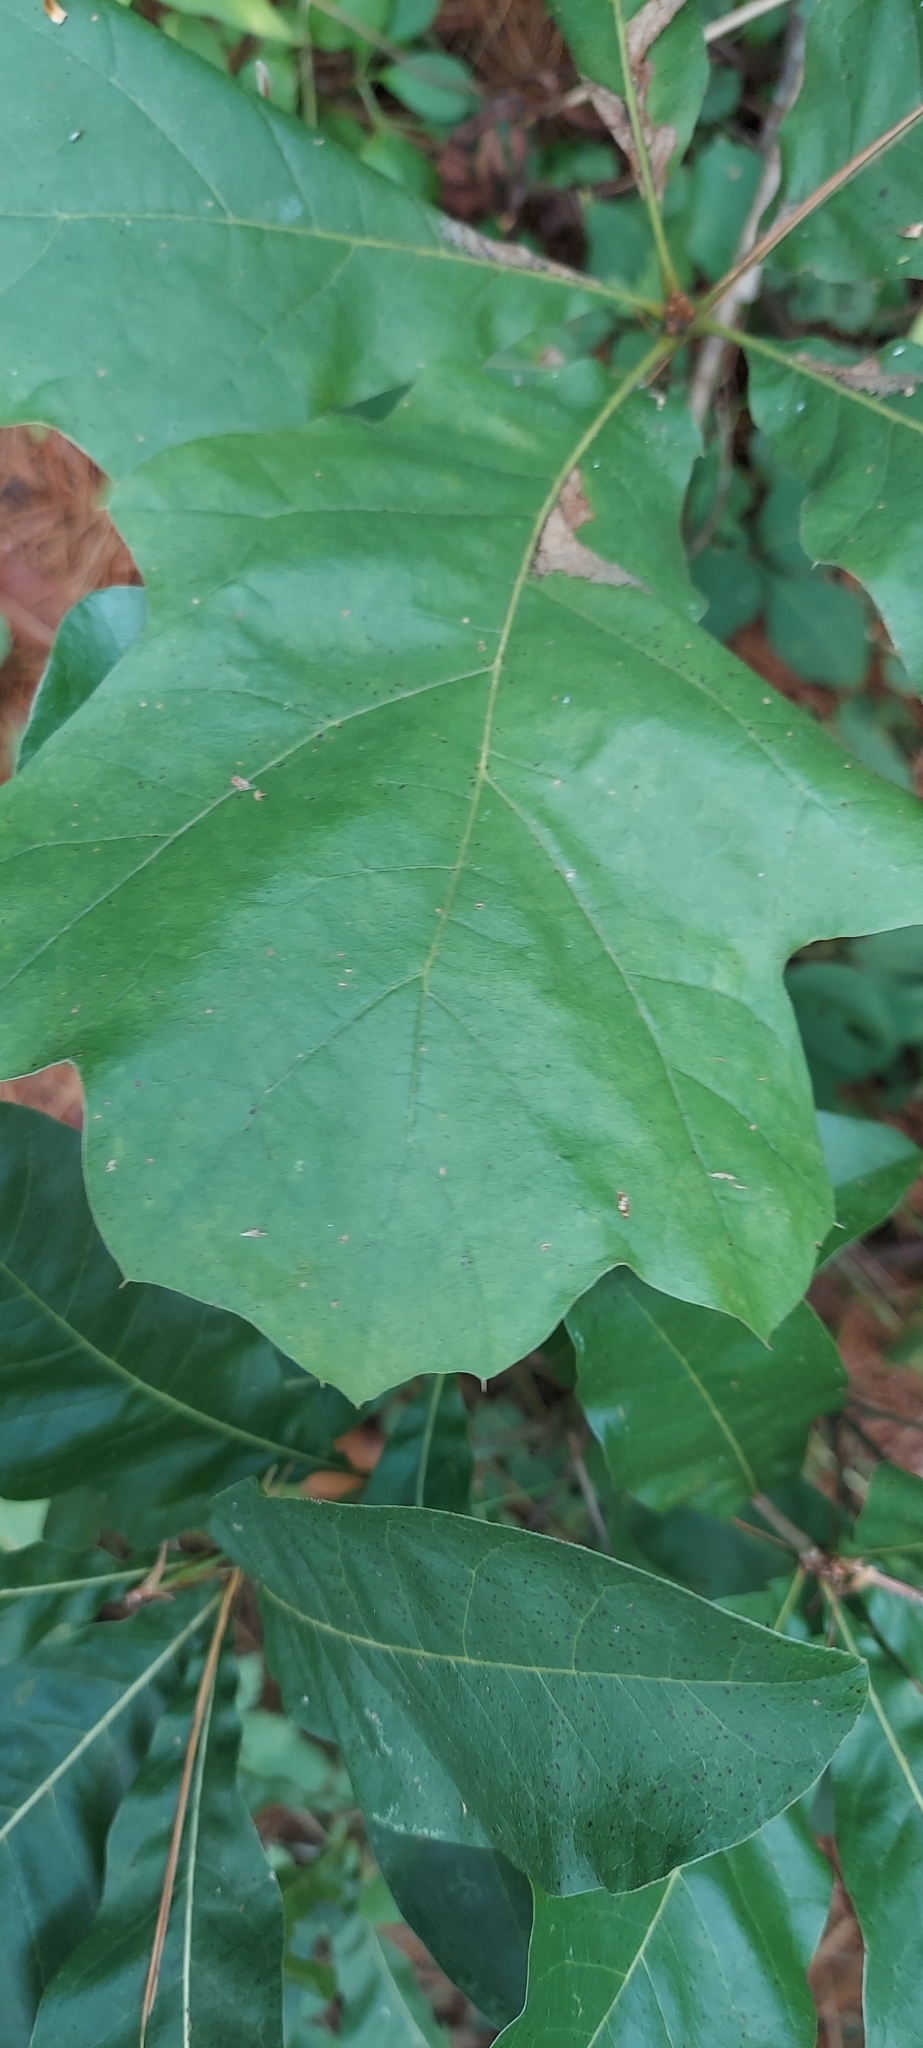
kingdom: Plantae
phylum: Tracheophyta
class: Magnoliopsida
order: Fagales
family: Fagaceae
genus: Quercus
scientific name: Quercus velutina
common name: Black oak
